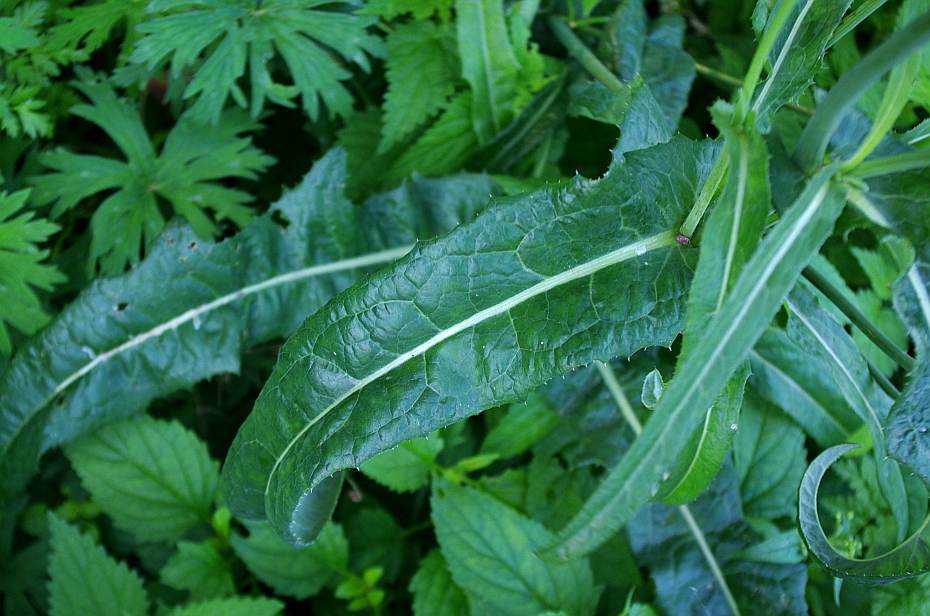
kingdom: Plantae
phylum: Tracheophyta
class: Magnoliopsida
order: Asterales
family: Asteraceae
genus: Sonchus
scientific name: Sonchus arvensis
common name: Perennial sow-thistle
